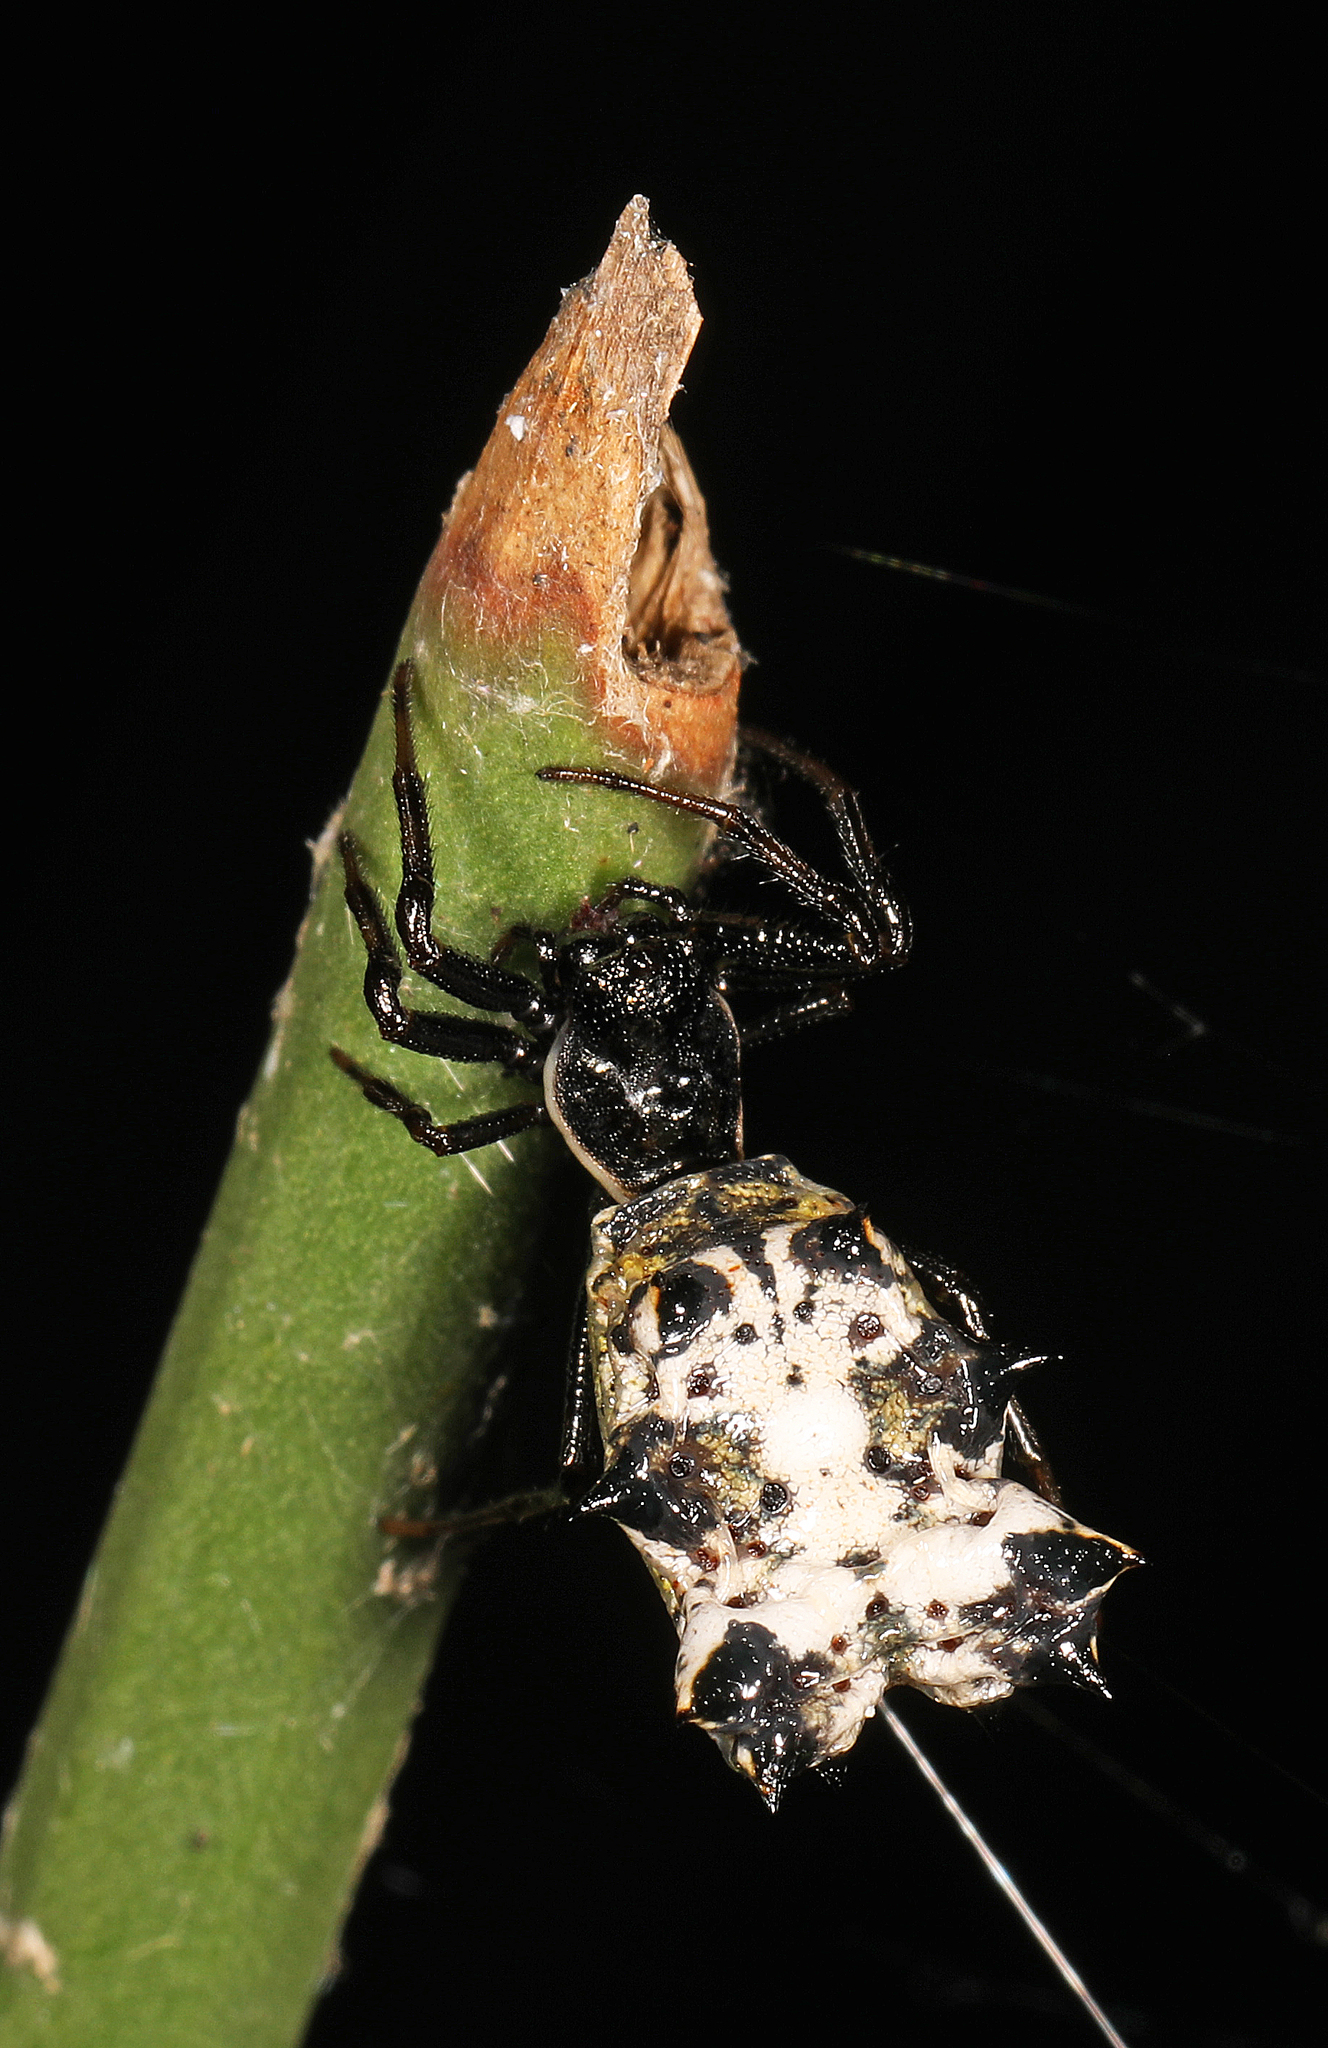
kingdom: Animalia
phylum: Arthropoda
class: Arachnida
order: Araneae
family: Araneidae
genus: Micrathena
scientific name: Micrathena gracilis
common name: Orb weavers
